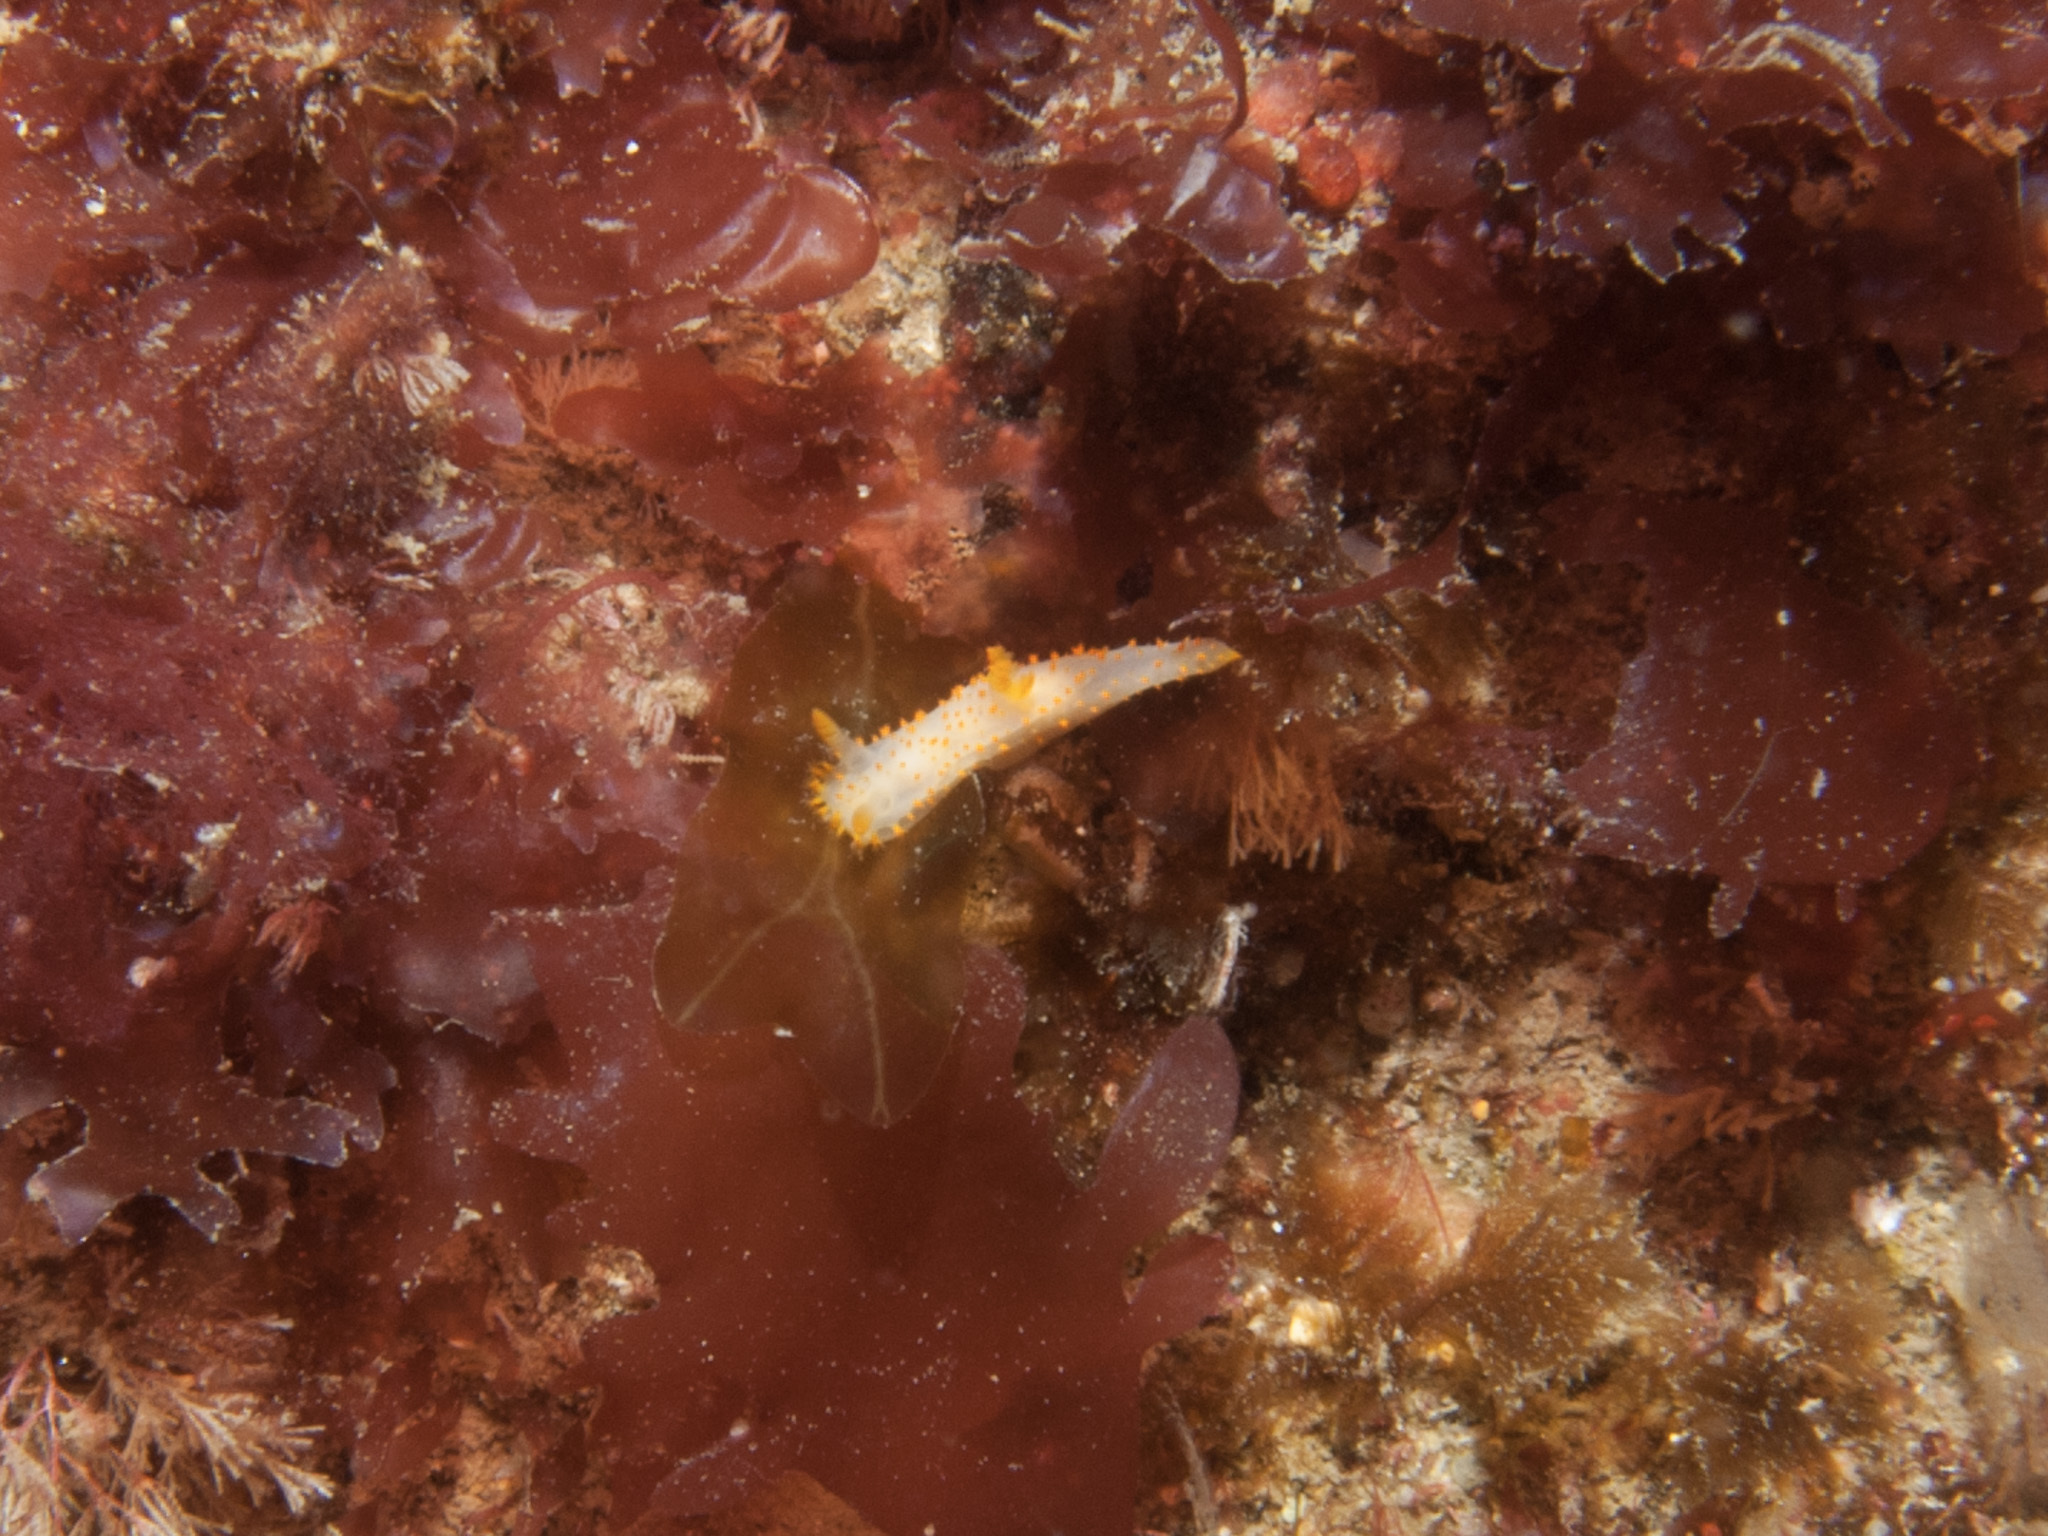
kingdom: Animalia
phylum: Mollusca
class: Gastropoda
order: Nudibranchia
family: Polyceridae
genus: Crimora
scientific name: Crimora papillata
